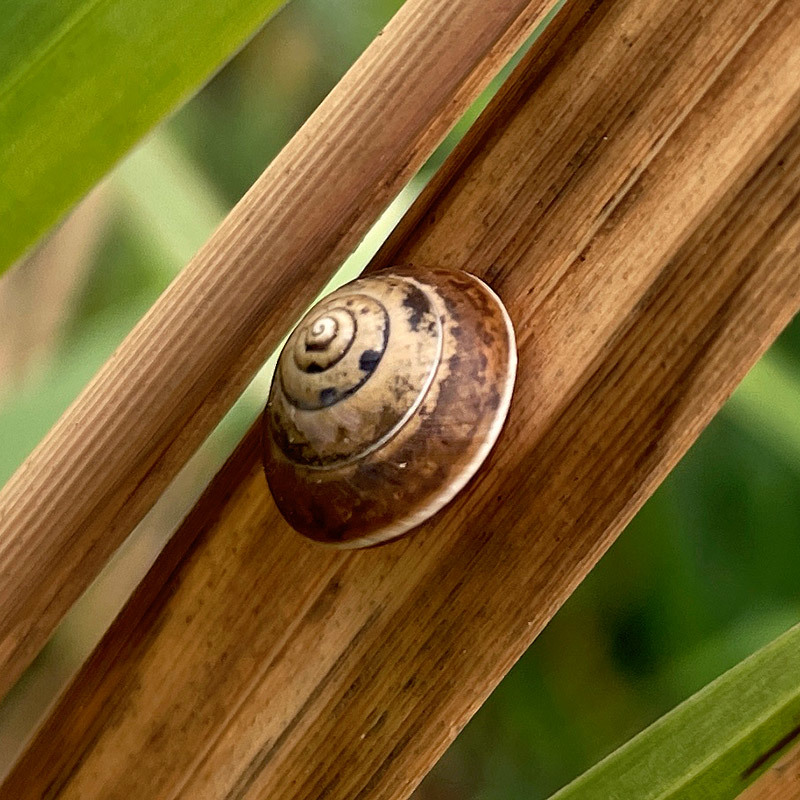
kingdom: Animalia
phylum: Mollusca
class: Gastropoda
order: Stylommatophora
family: Hygromiidae
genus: Hygromia
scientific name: Hygromia cinctella
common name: Girdled snail
